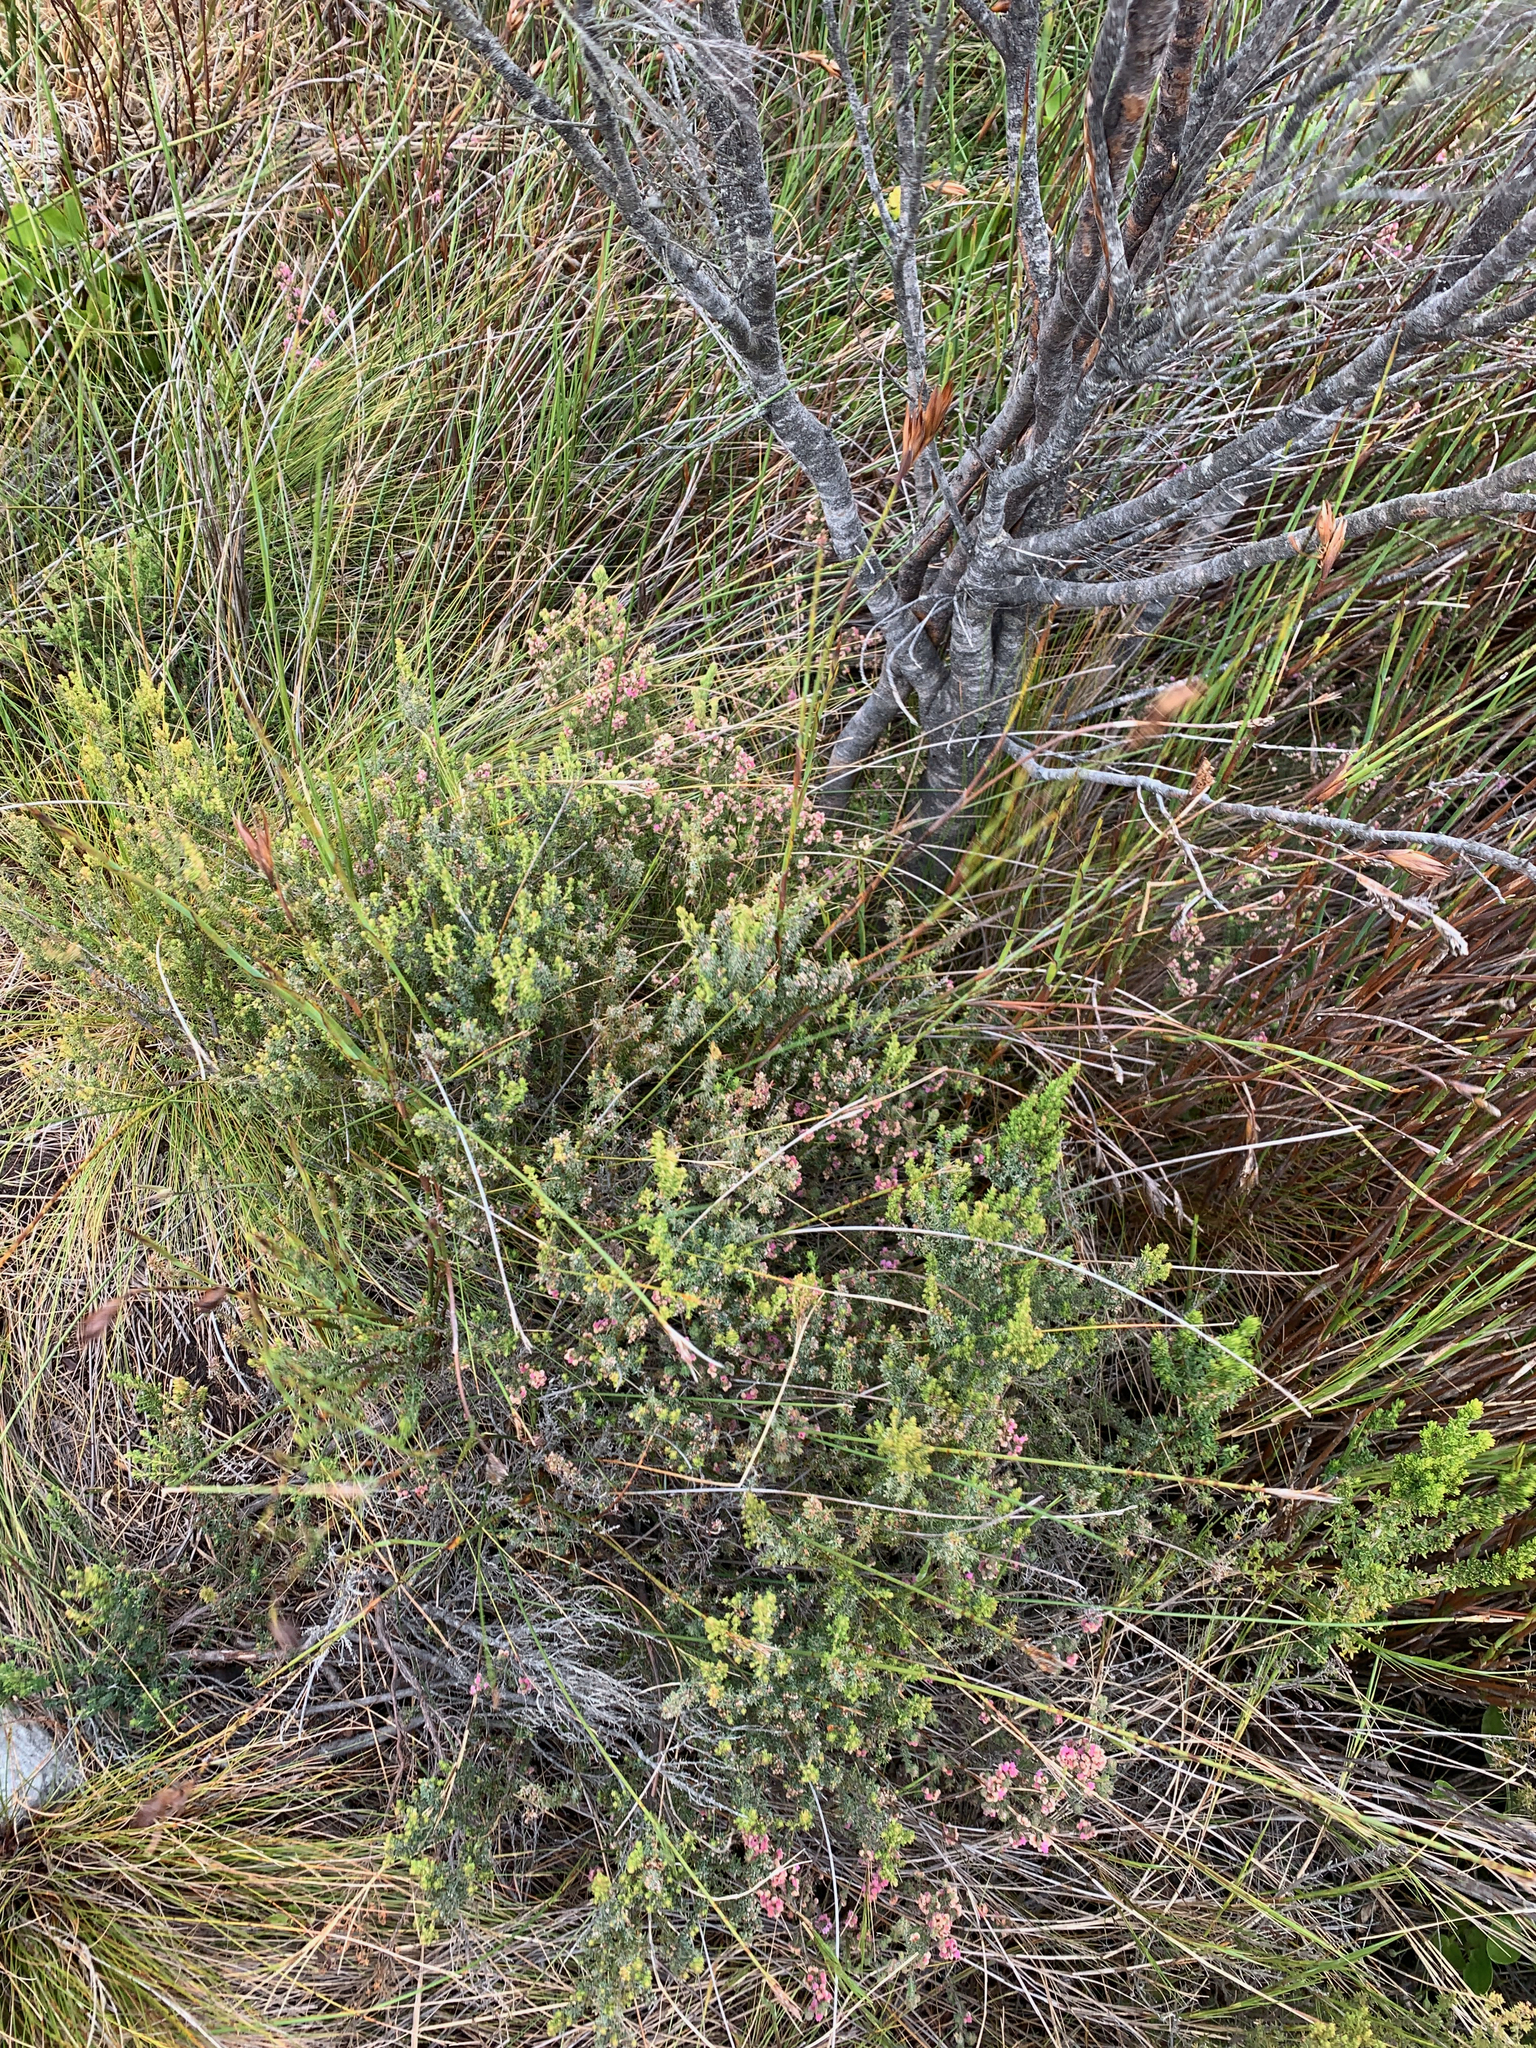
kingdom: Plantae
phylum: Tracheophyta
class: Magnoliopsida
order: Ericales
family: Ericaceae
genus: Erica
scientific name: Erica mollis
